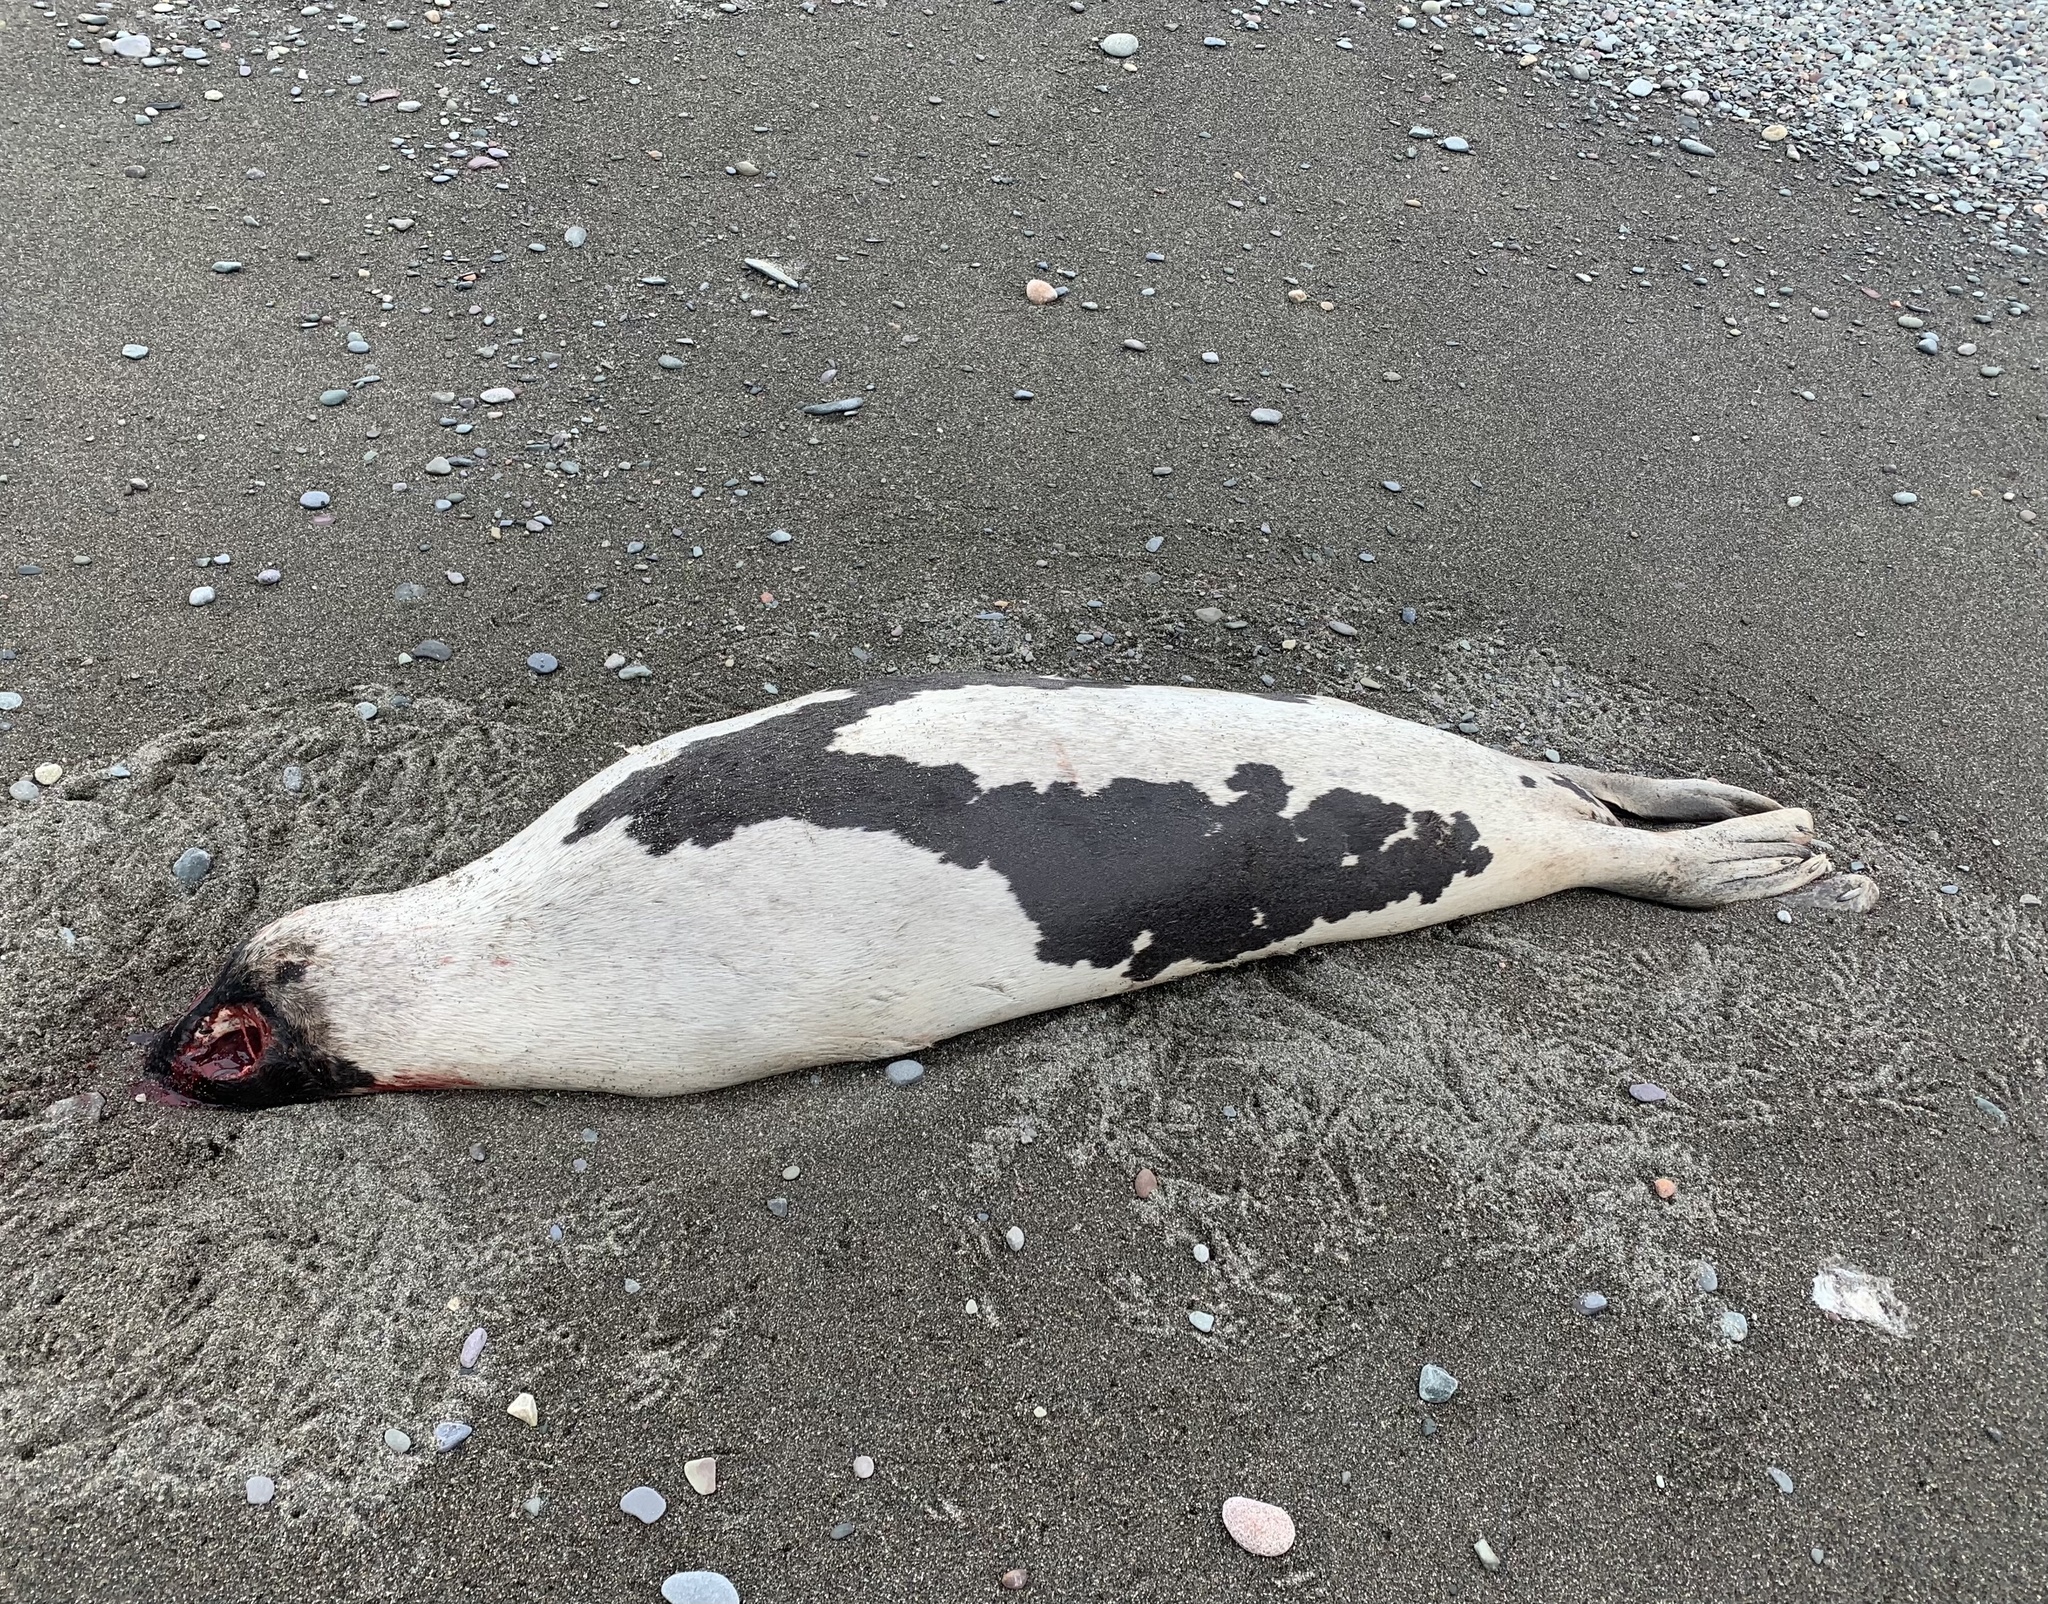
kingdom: Animalia
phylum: Chordata
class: Mammalia
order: Carnivora
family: Phocidae
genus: Pagophilus
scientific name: Pagophilus groenlandicus
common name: Harp seal
